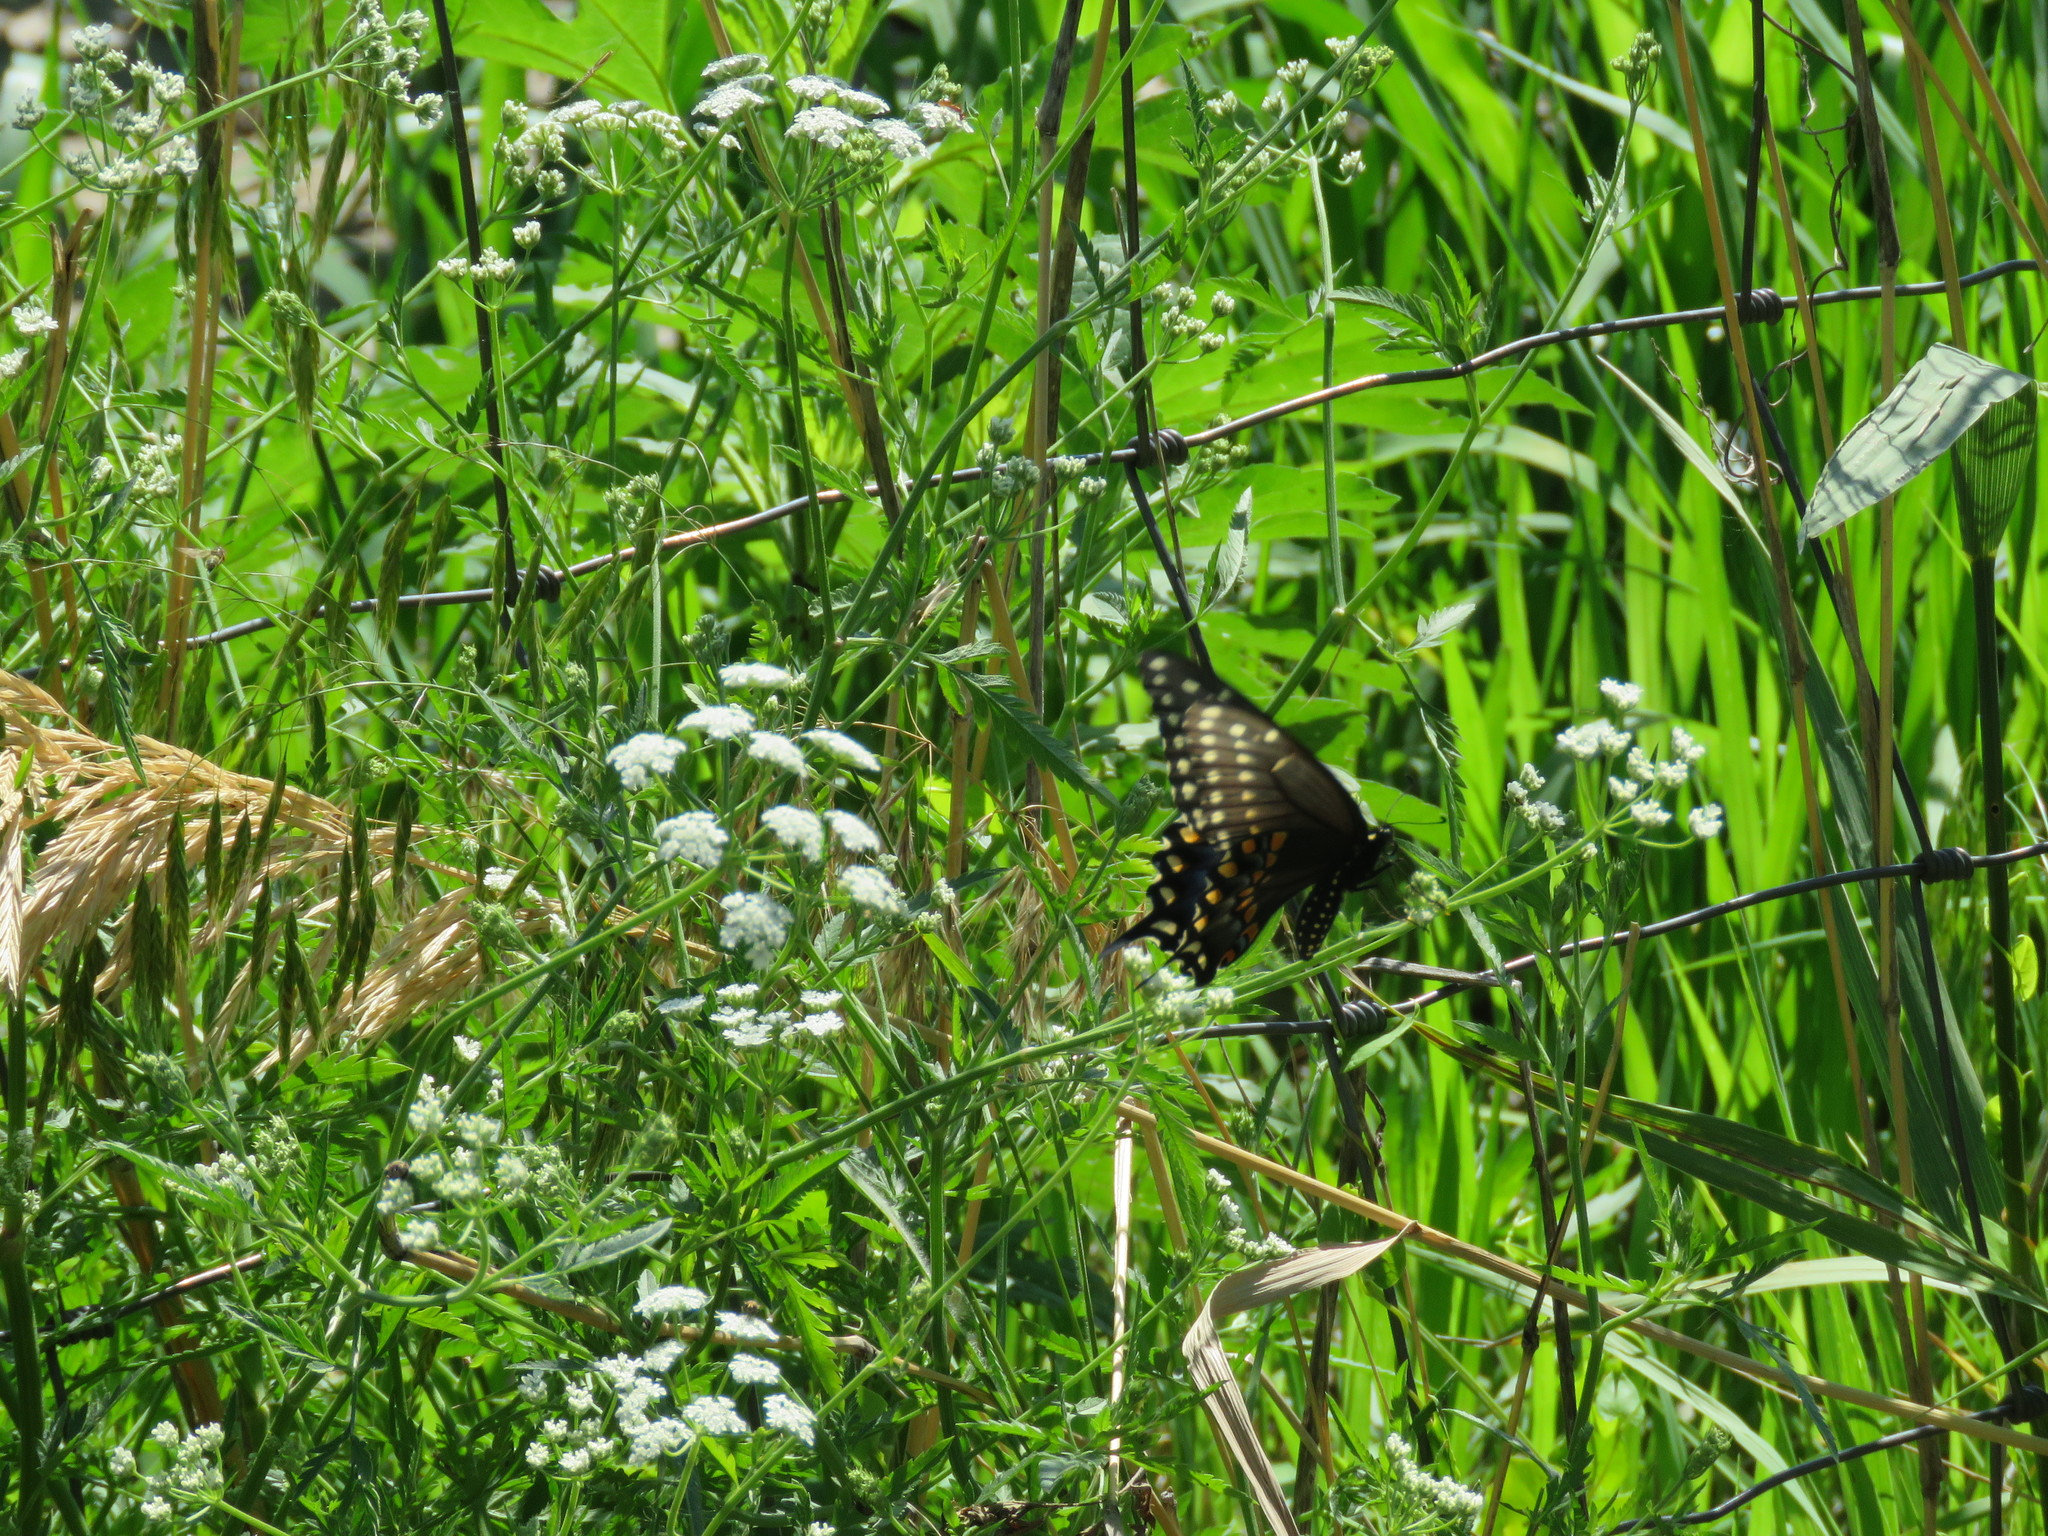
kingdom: Animalia
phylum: Arthropoda
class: Insecta
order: Lepidoptera
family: Papilionidae
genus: Papilio
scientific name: Papilio polyxenes
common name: Black swallowtail
